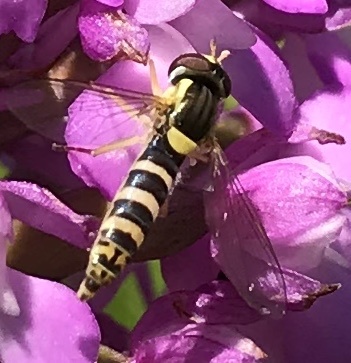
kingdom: Animalia
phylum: Arthropoda
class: Insecta
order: Diptera
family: Syrphidae
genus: Sphaerophoria
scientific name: Sphaerophoria
